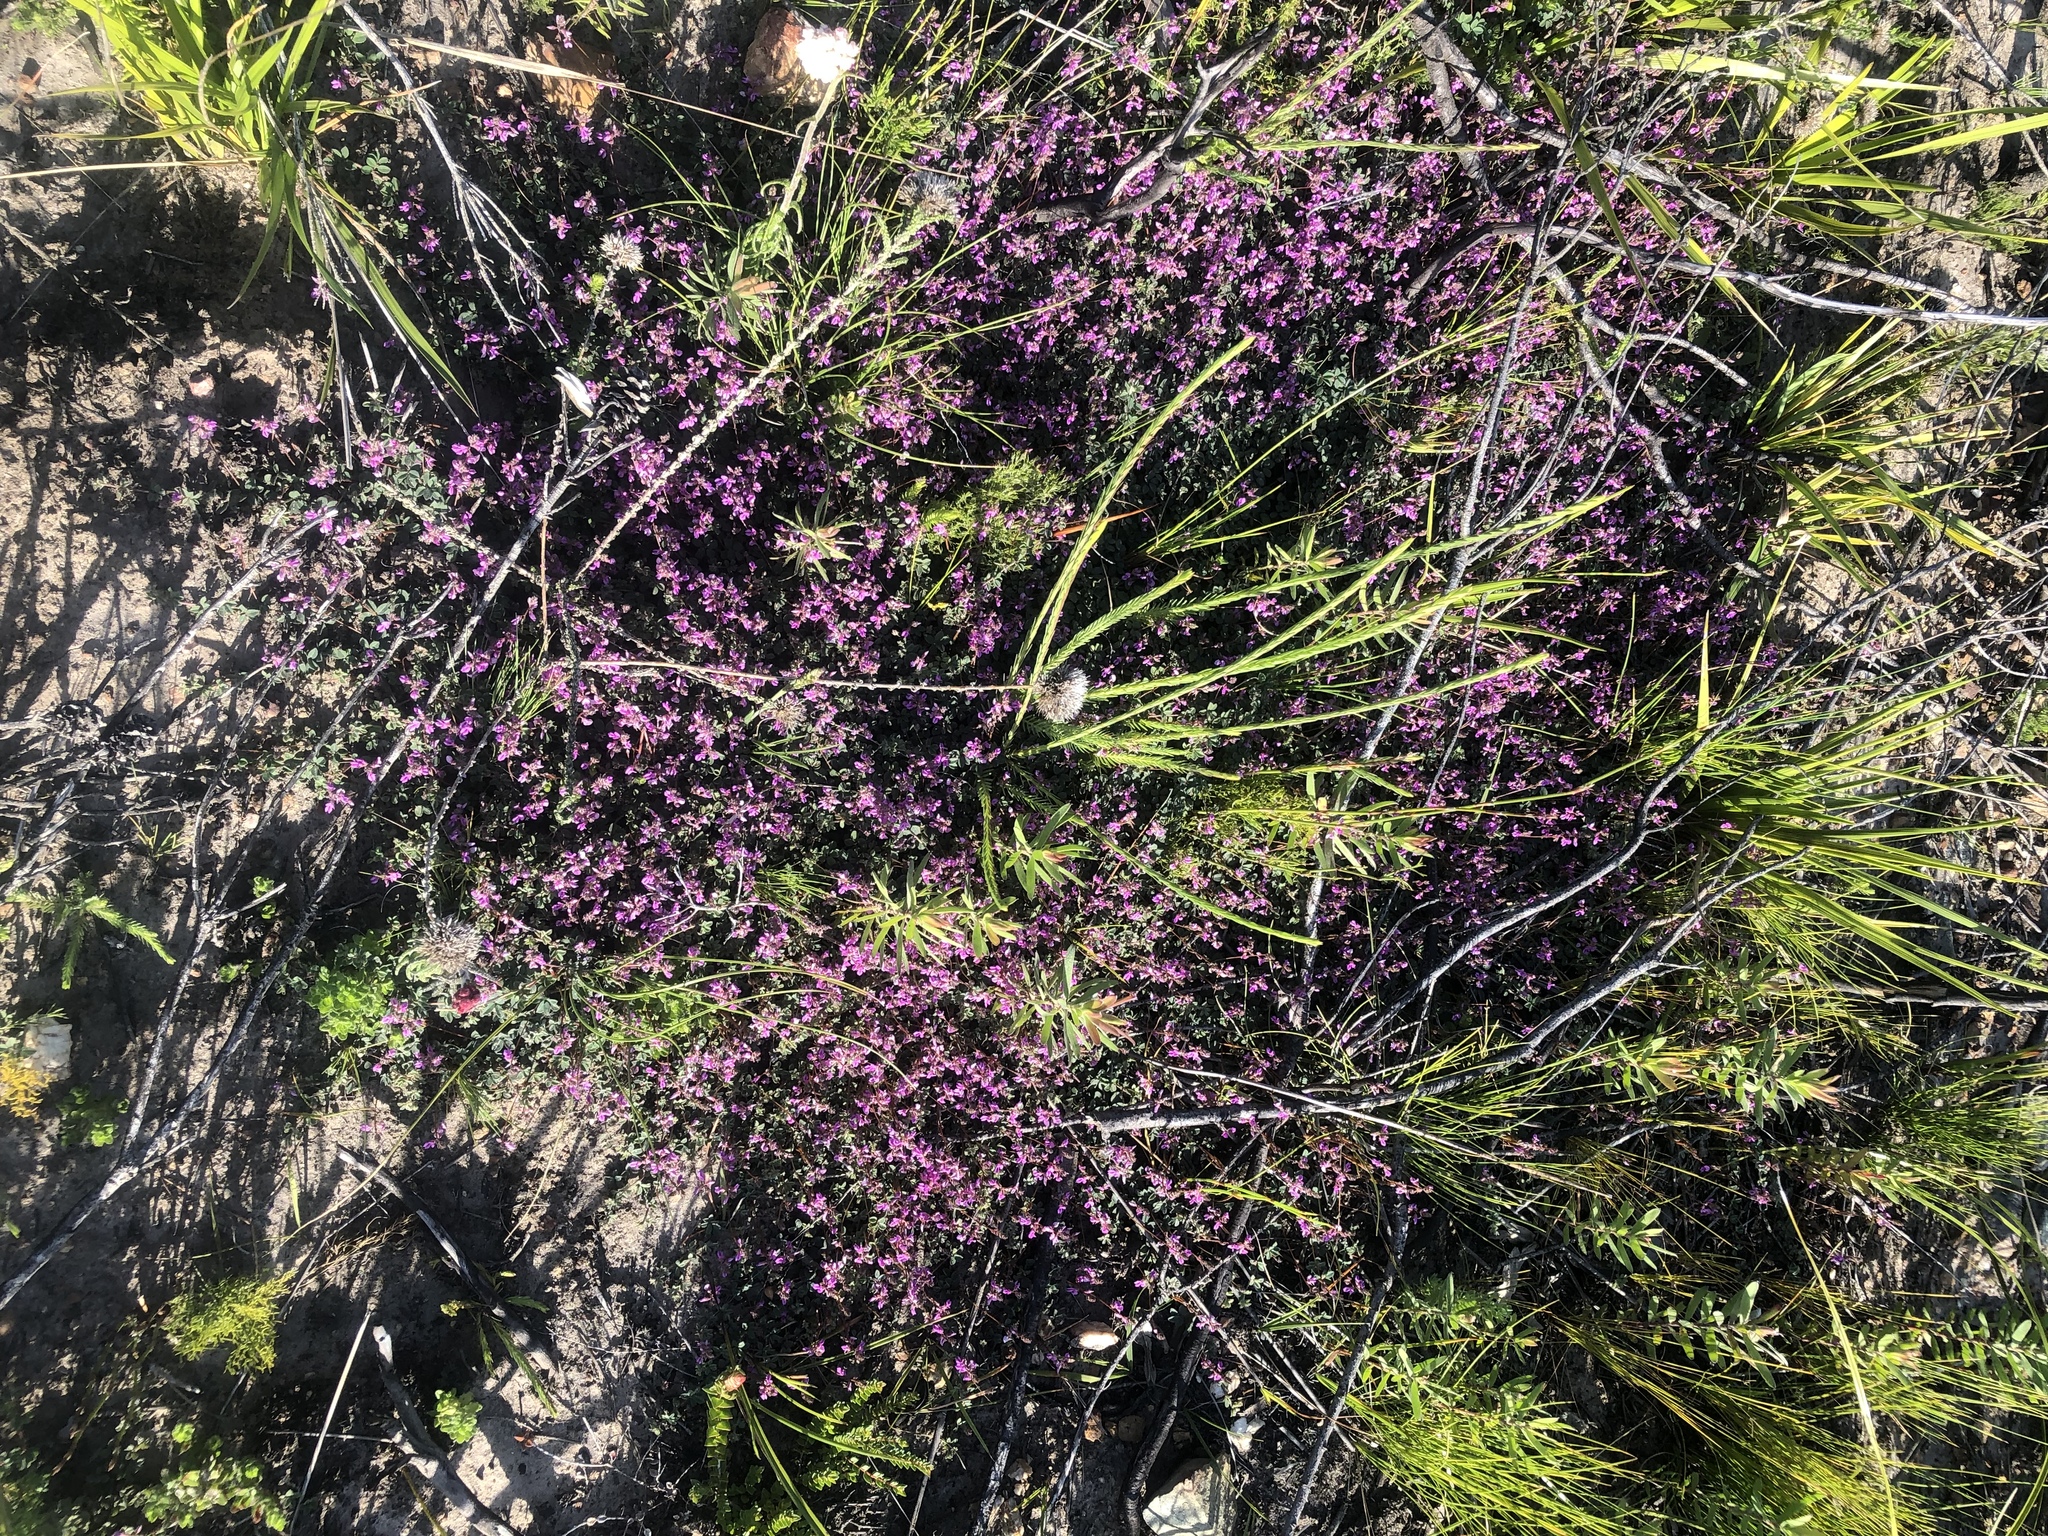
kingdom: Plantae
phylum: Tracheophyta
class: Magnoliopsida
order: Fabales
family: Fabaceae
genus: Indigofera
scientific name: Indigofera alopecuroides
